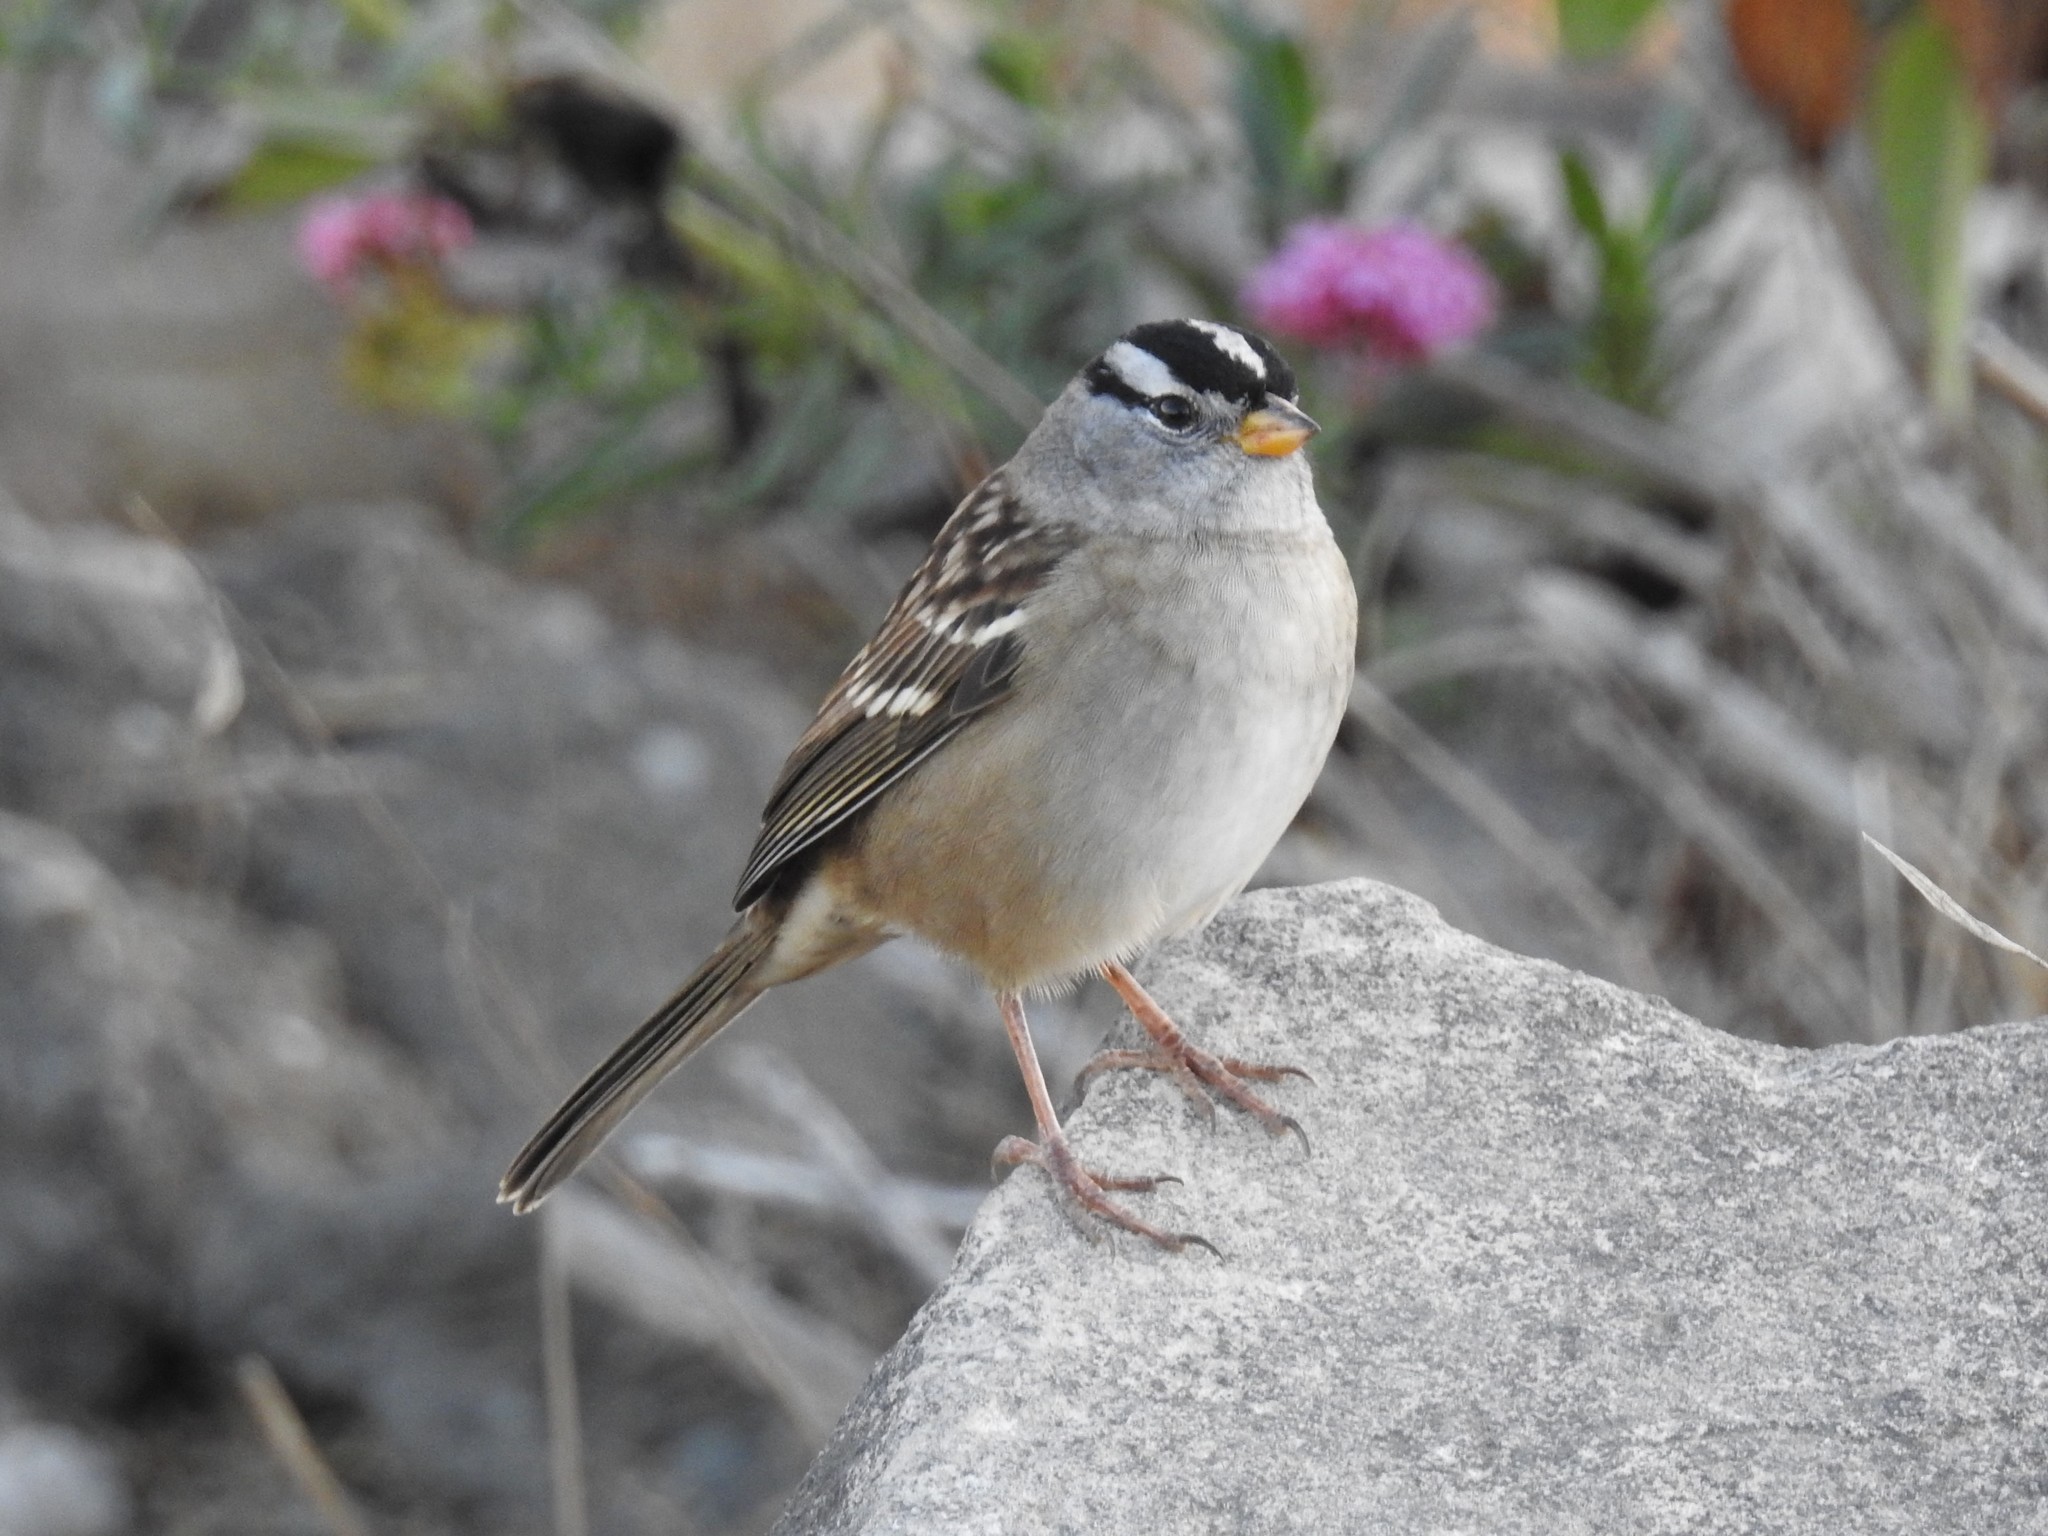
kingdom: Animalia
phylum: Chordata
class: Aves
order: Passeriformes
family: Passerellidae
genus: Zonotrichia
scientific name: Zonotrichia leucophrys
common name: White-crowned sparrow
